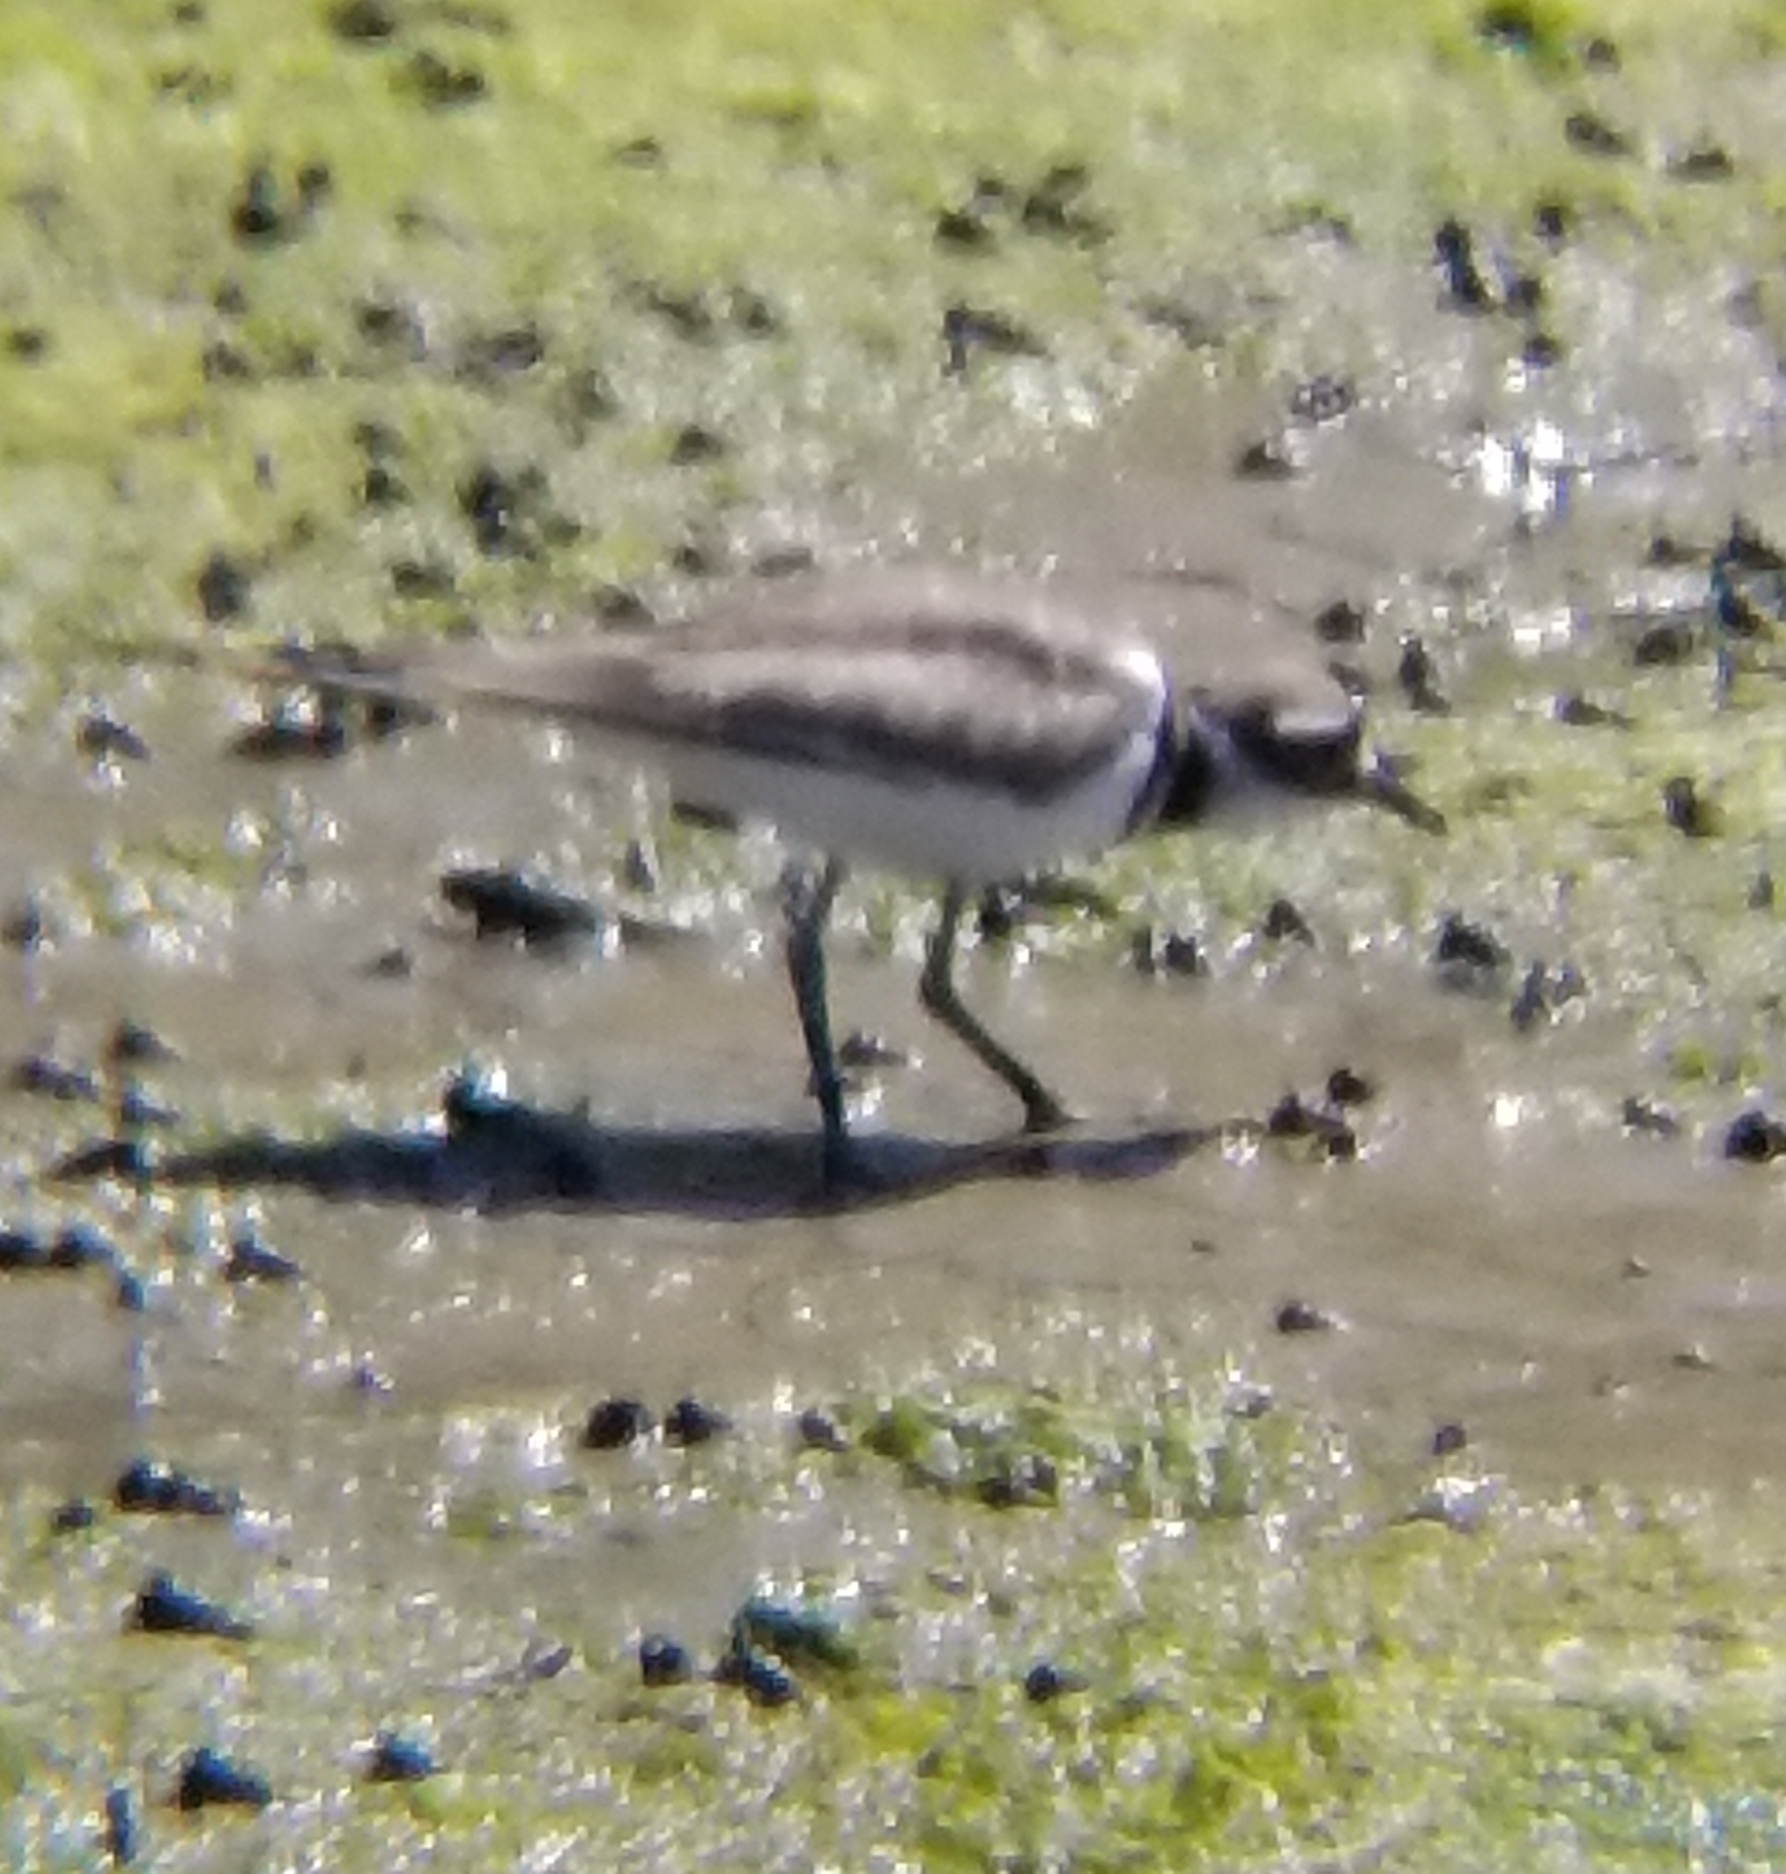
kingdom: Animalia
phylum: Chordata
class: Aves
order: Charadriiformes
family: Charadriidae
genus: Charadrius
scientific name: Charadrius vociferus
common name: Killdeer
